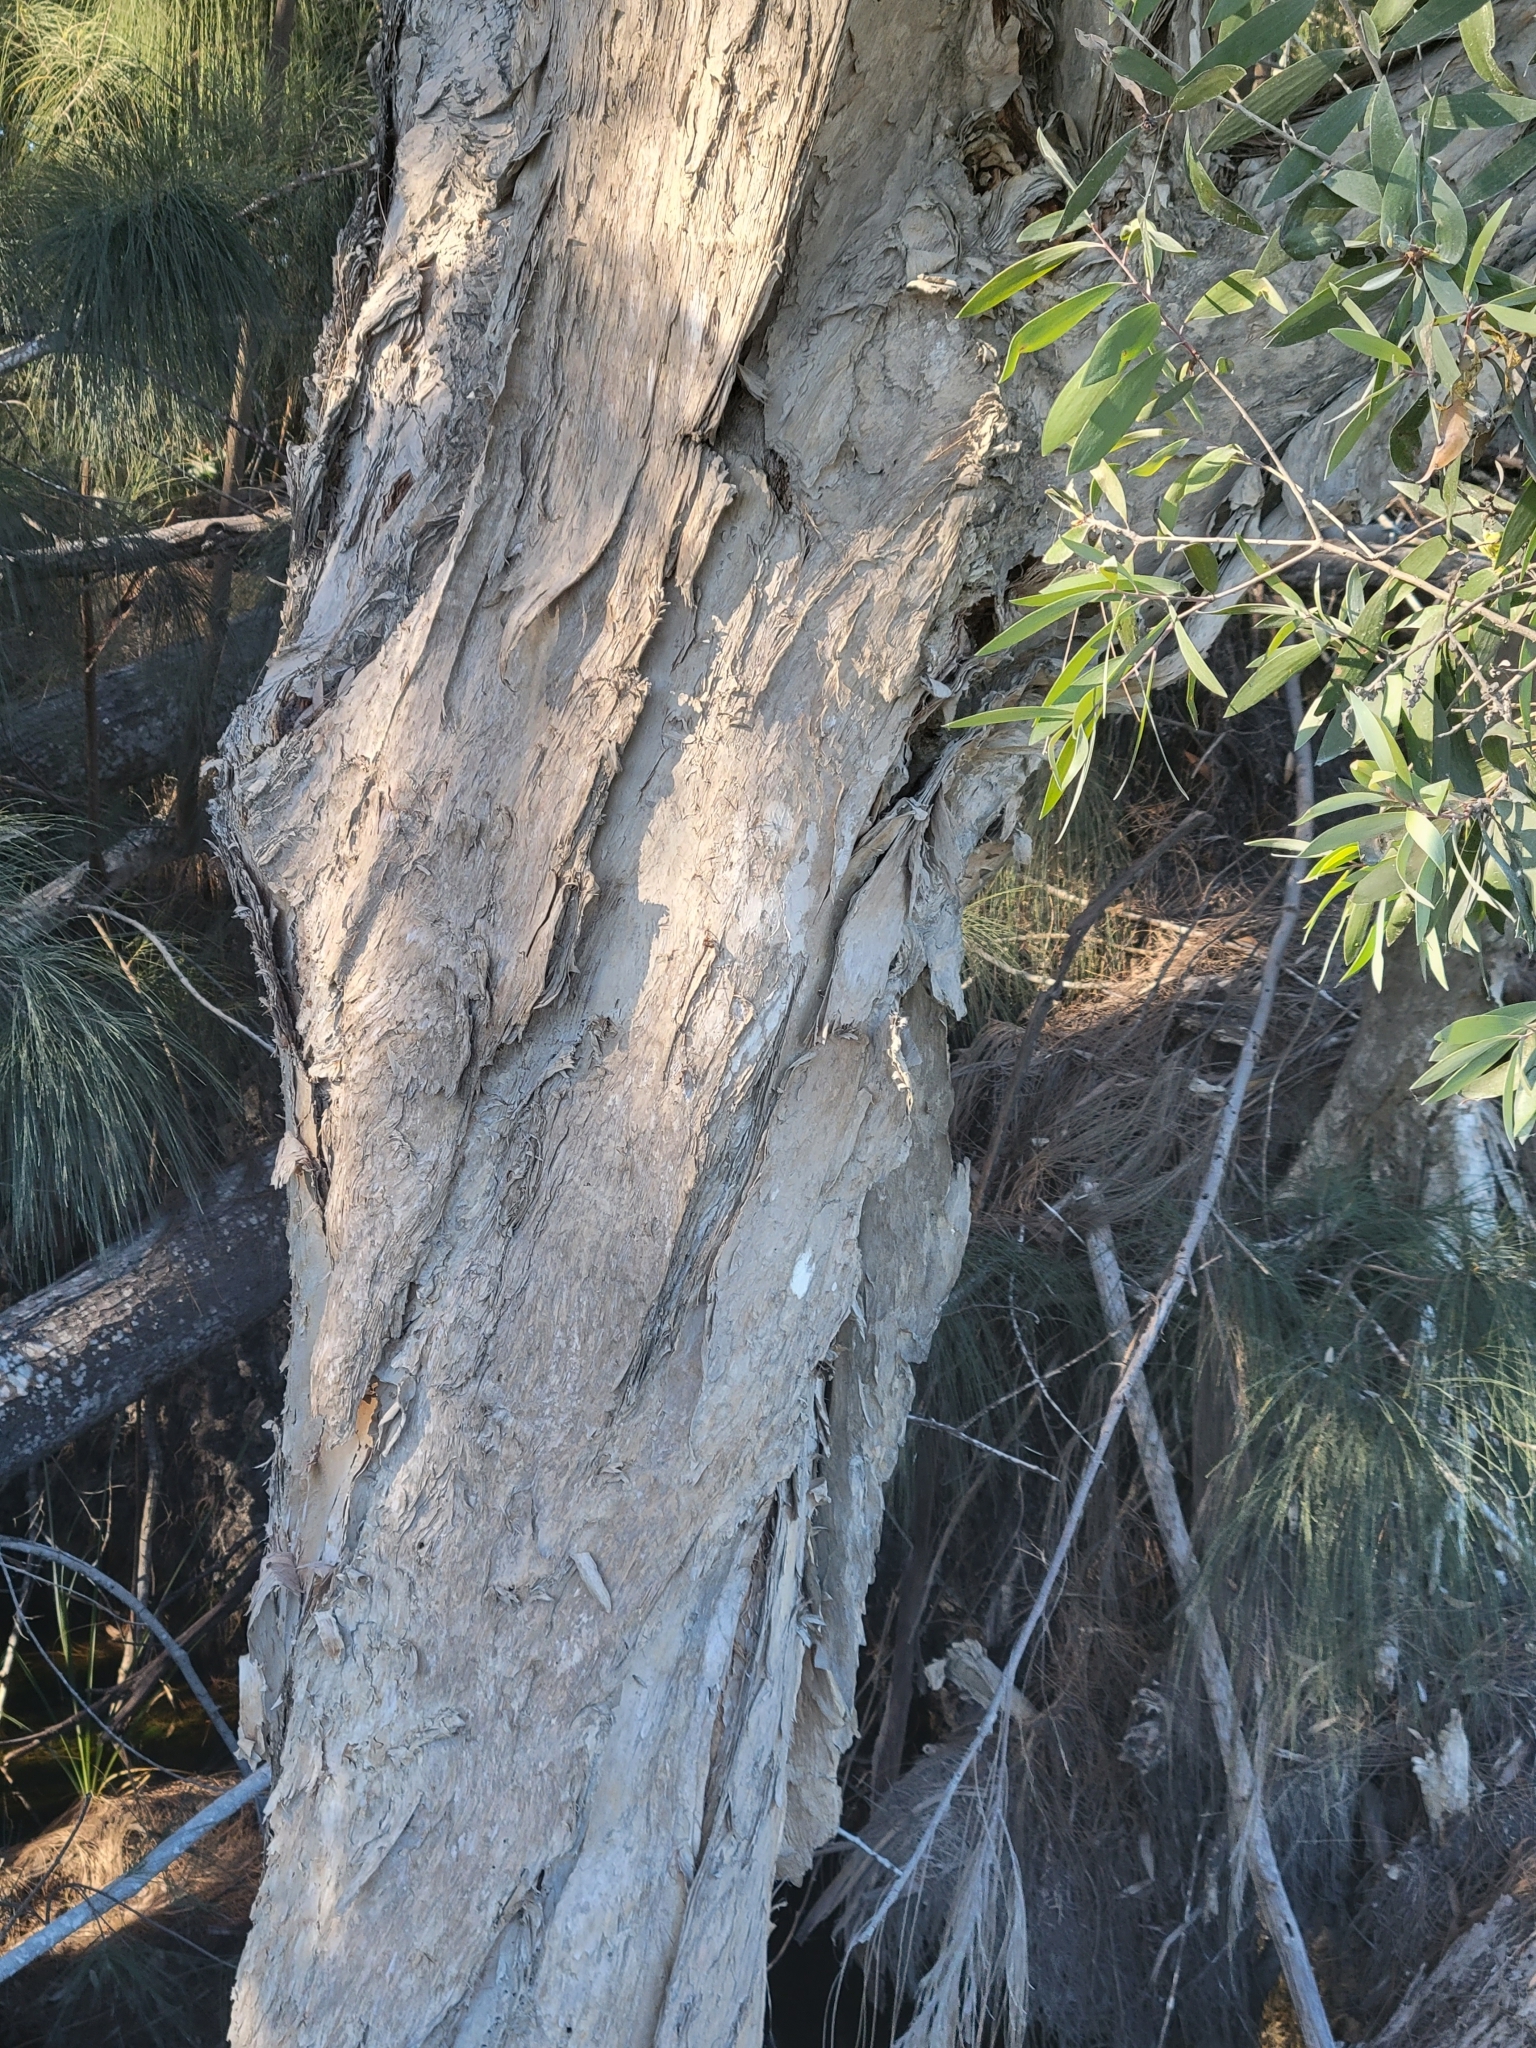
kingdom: Plantae
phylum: Tracheophyta
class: Magnoliopsida
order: Myrtales
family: Myrtaceae
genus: Melaleuca
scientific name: Melaleuca quinquenervia
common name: Punktree
